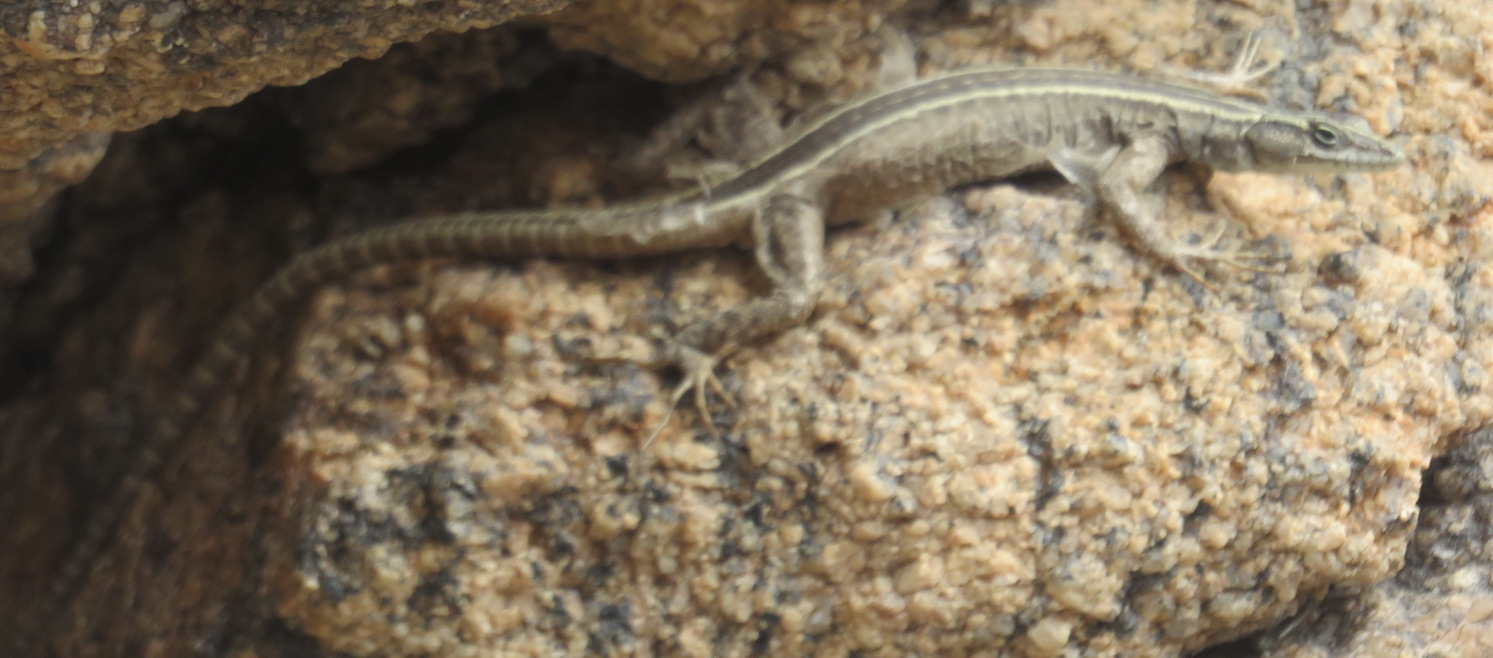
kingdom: Animalia
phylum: Chordata
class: Squamata
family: Cordylidae
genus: Platysaurus
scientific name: Platysaurus broadleyi
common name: Augrabies flat lizard
